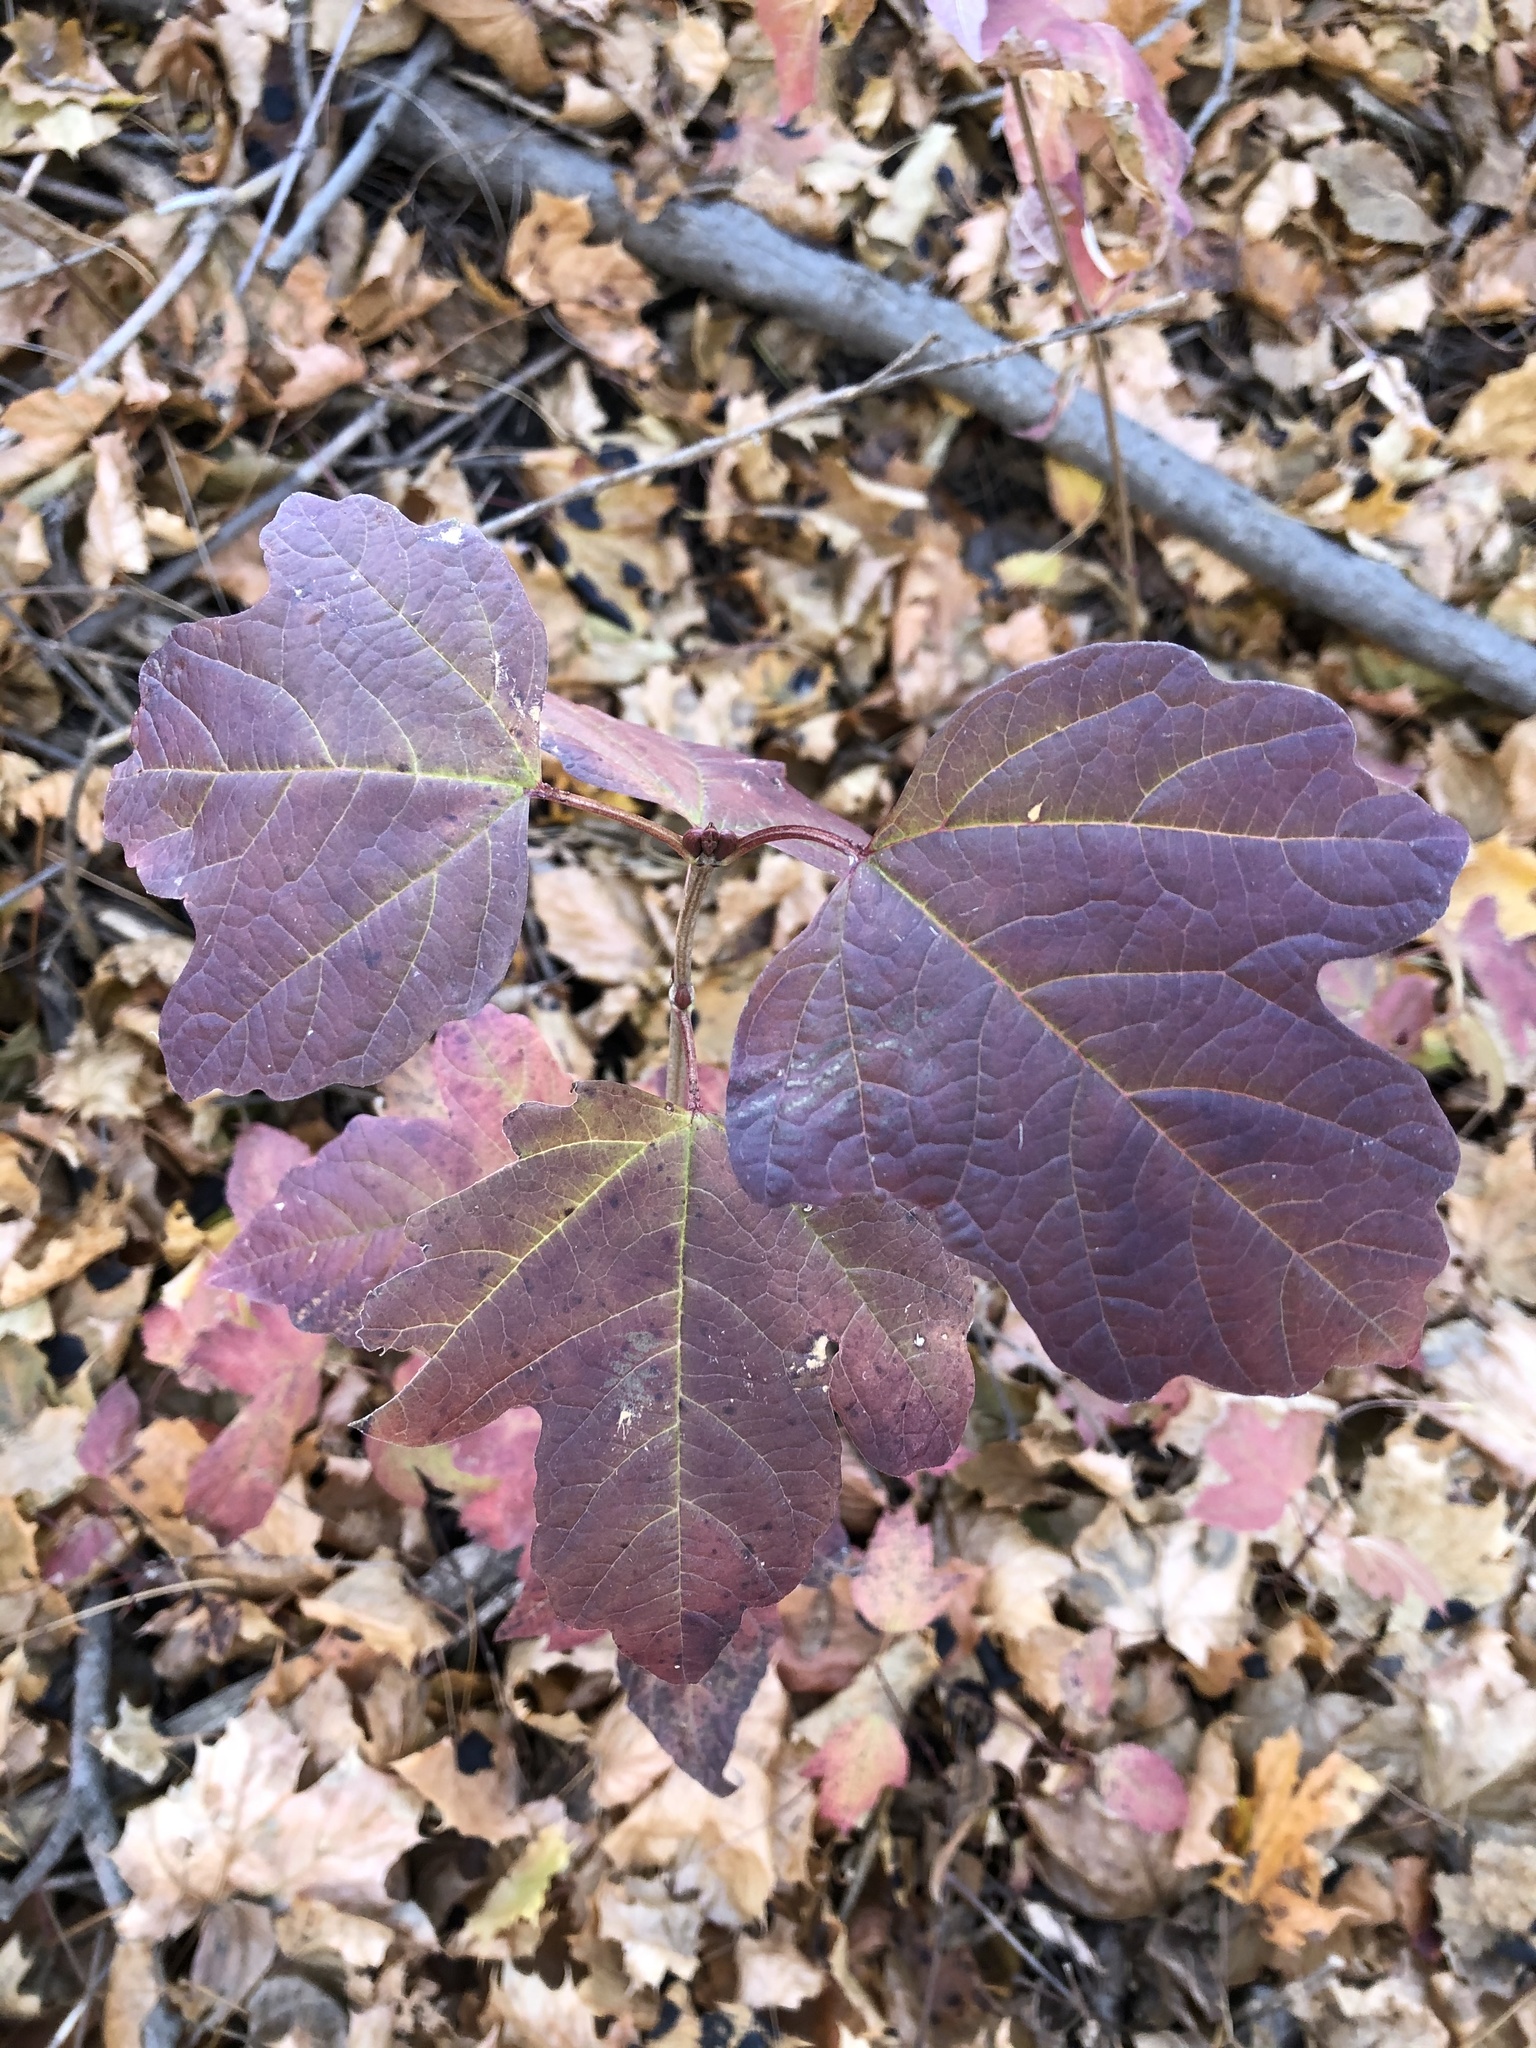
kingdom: Plantae
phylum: Tracheophyta
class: Magnoliopsida
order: Dipsacales
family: Viburnaceae
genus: Viburnum
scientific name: Viburnum opulus
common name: Guelder-rose
